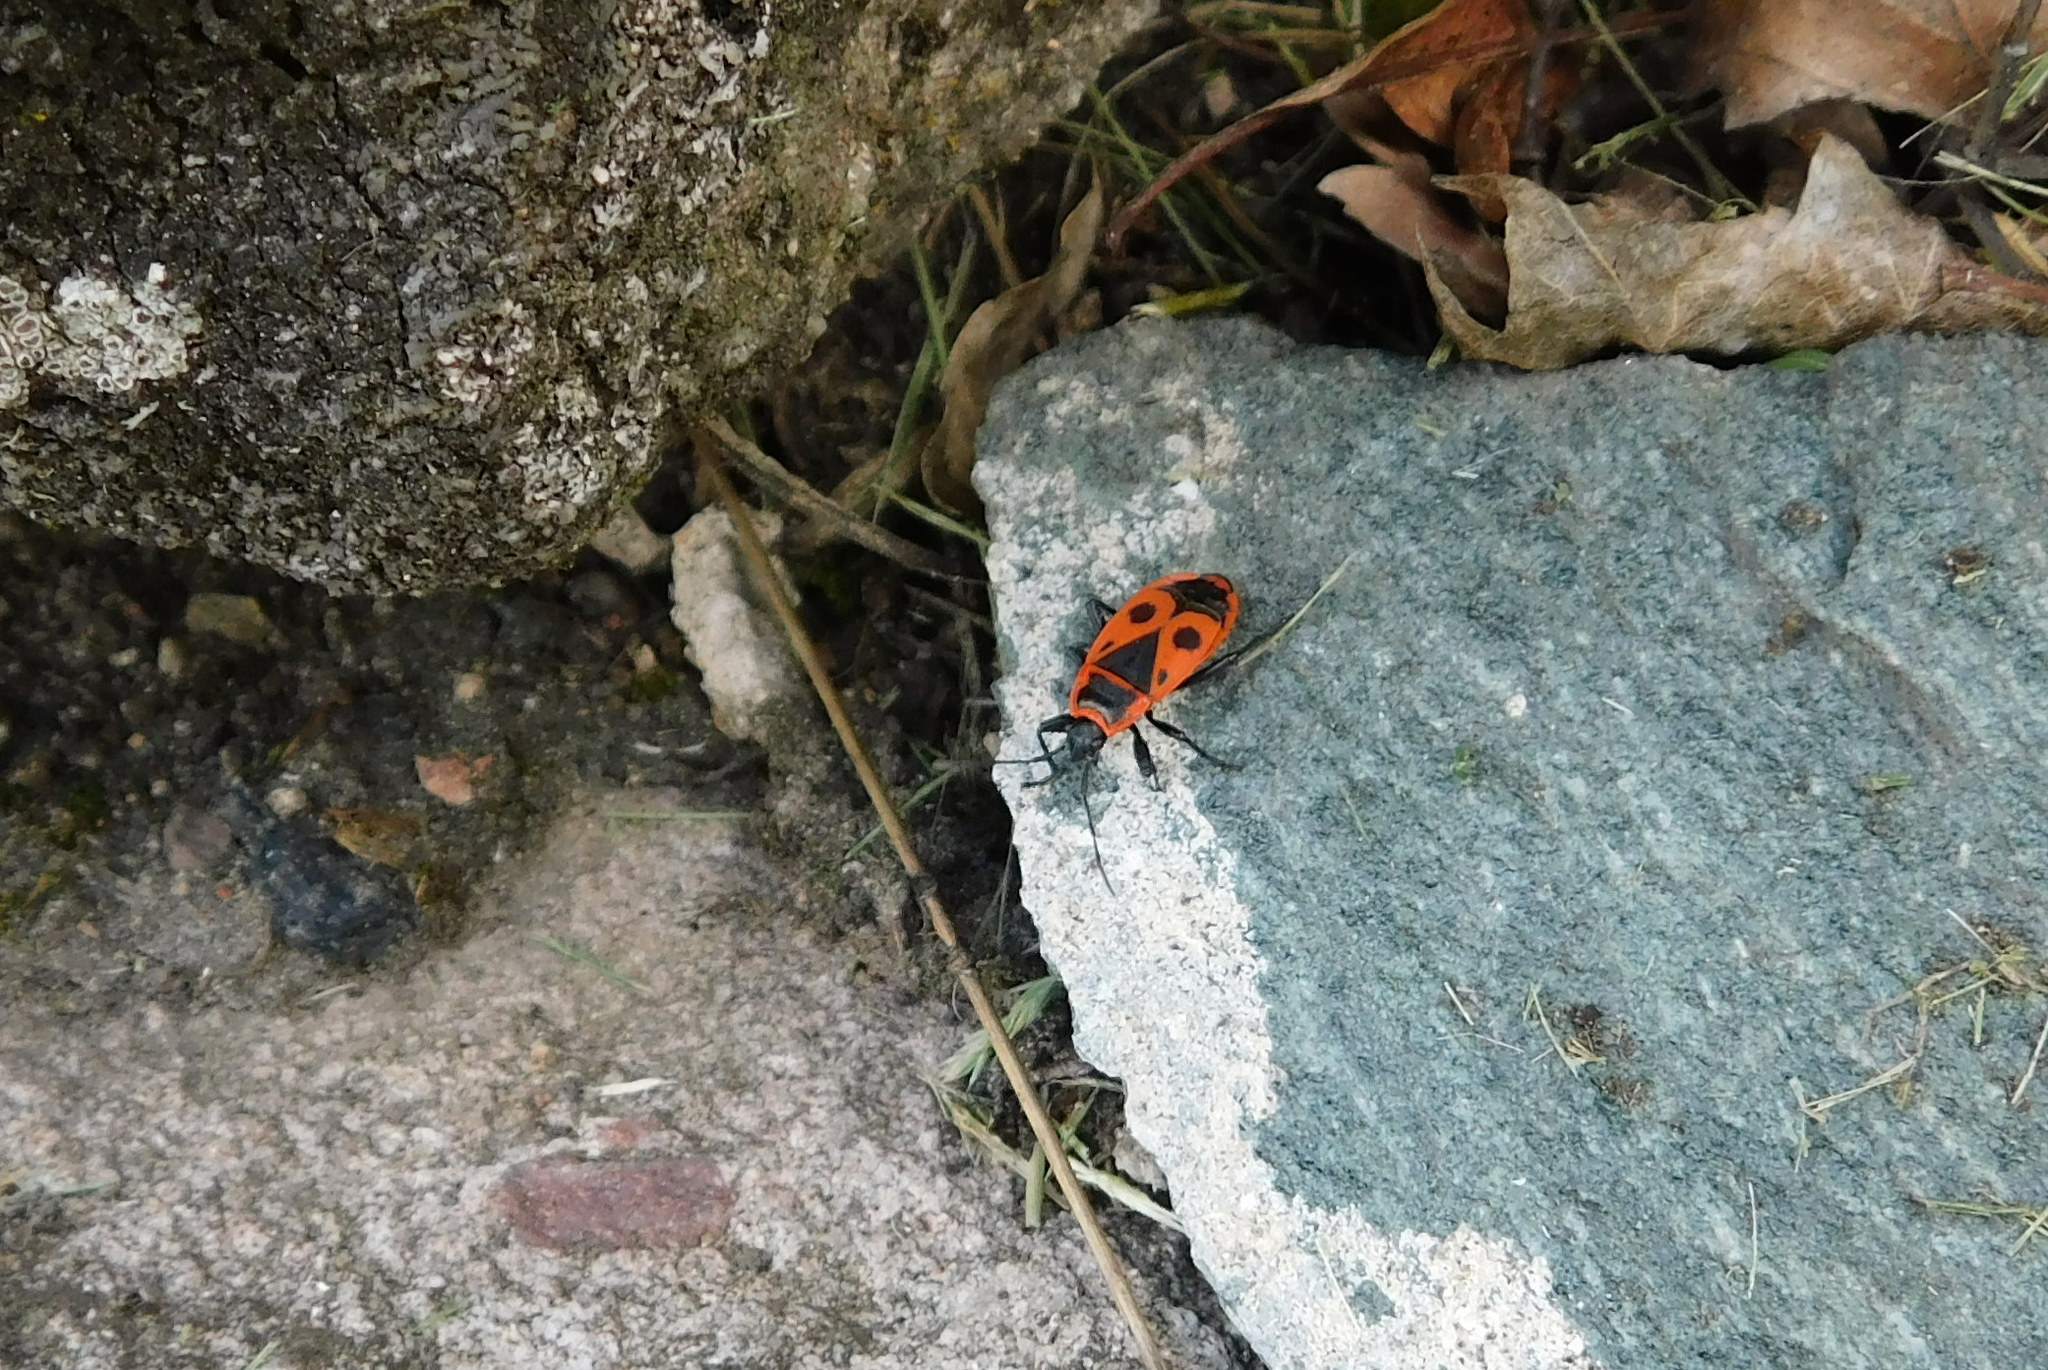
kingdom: Animalia
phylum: Arthropoda
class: Insecta
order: Hemiptera
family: Pyrrhocoridae
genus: Pyrrhocoris
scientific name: Pyrrhocoris apterus
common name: Firebug
